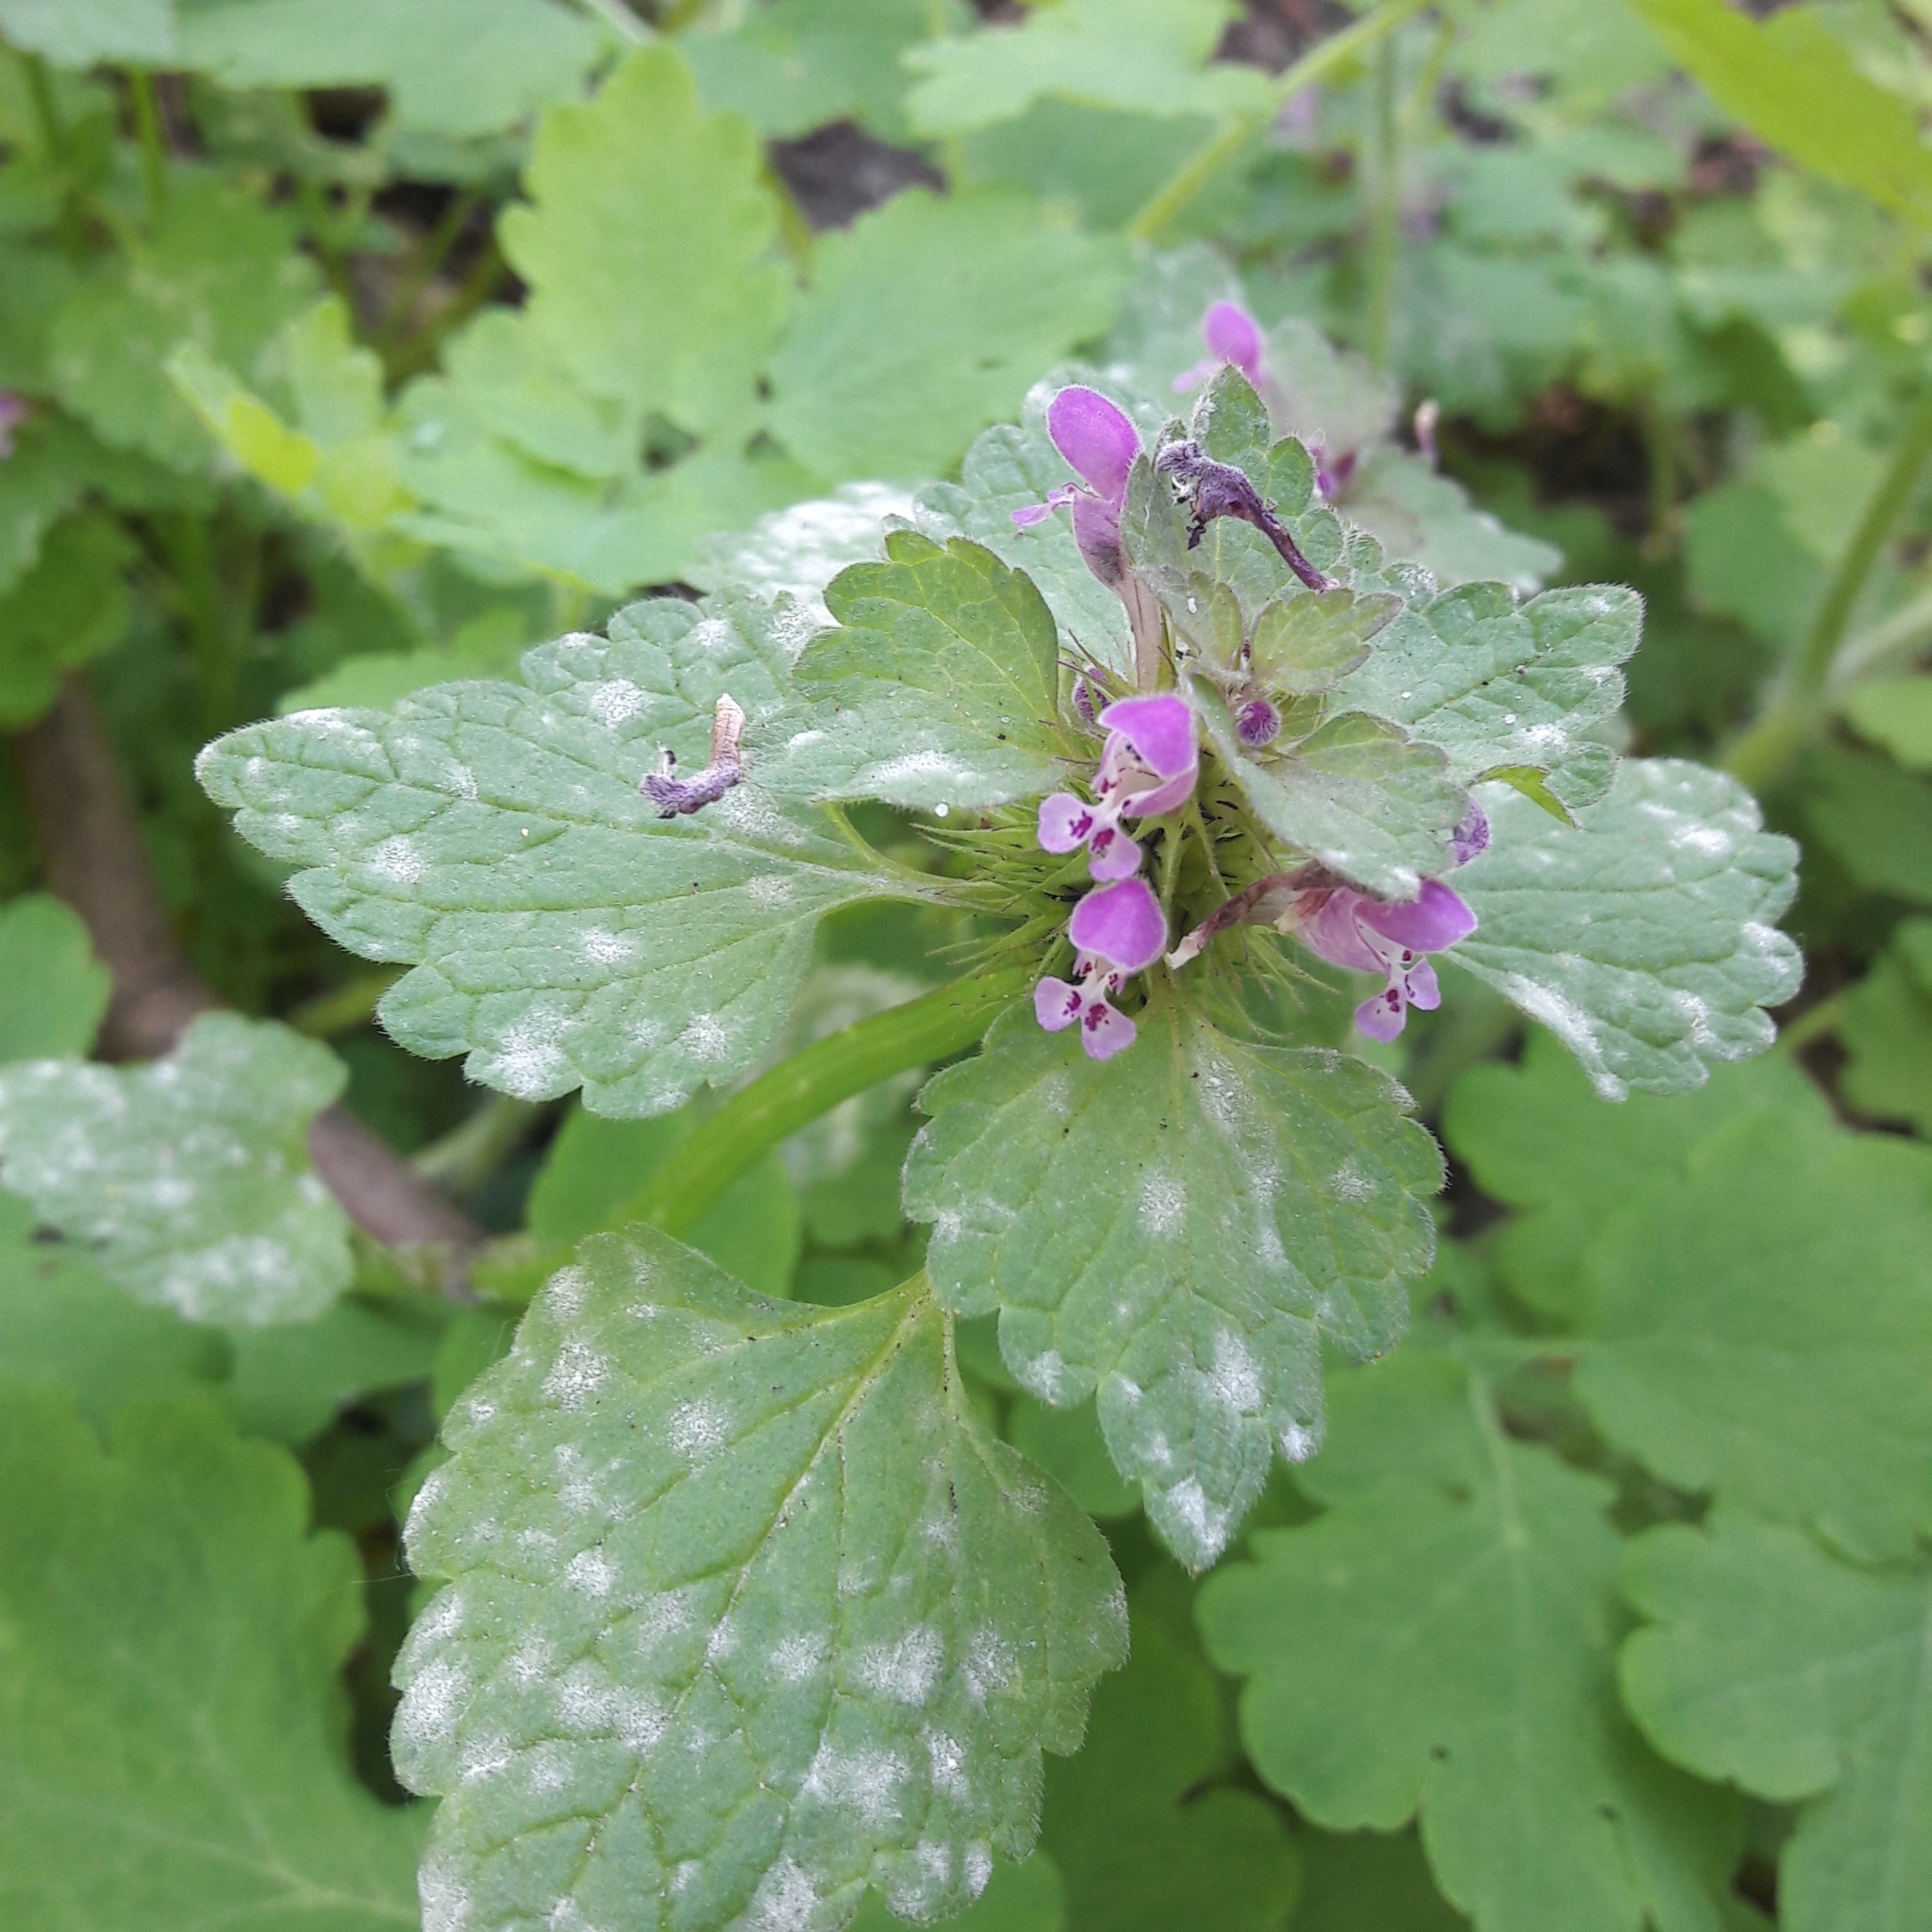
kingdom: Plantae
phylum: Tracheophyta
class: Magnoliopsida
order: Lamiales
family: Lamiaceae
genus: Lamium
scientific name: Lamium purpureum
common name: Red dead-nettle
